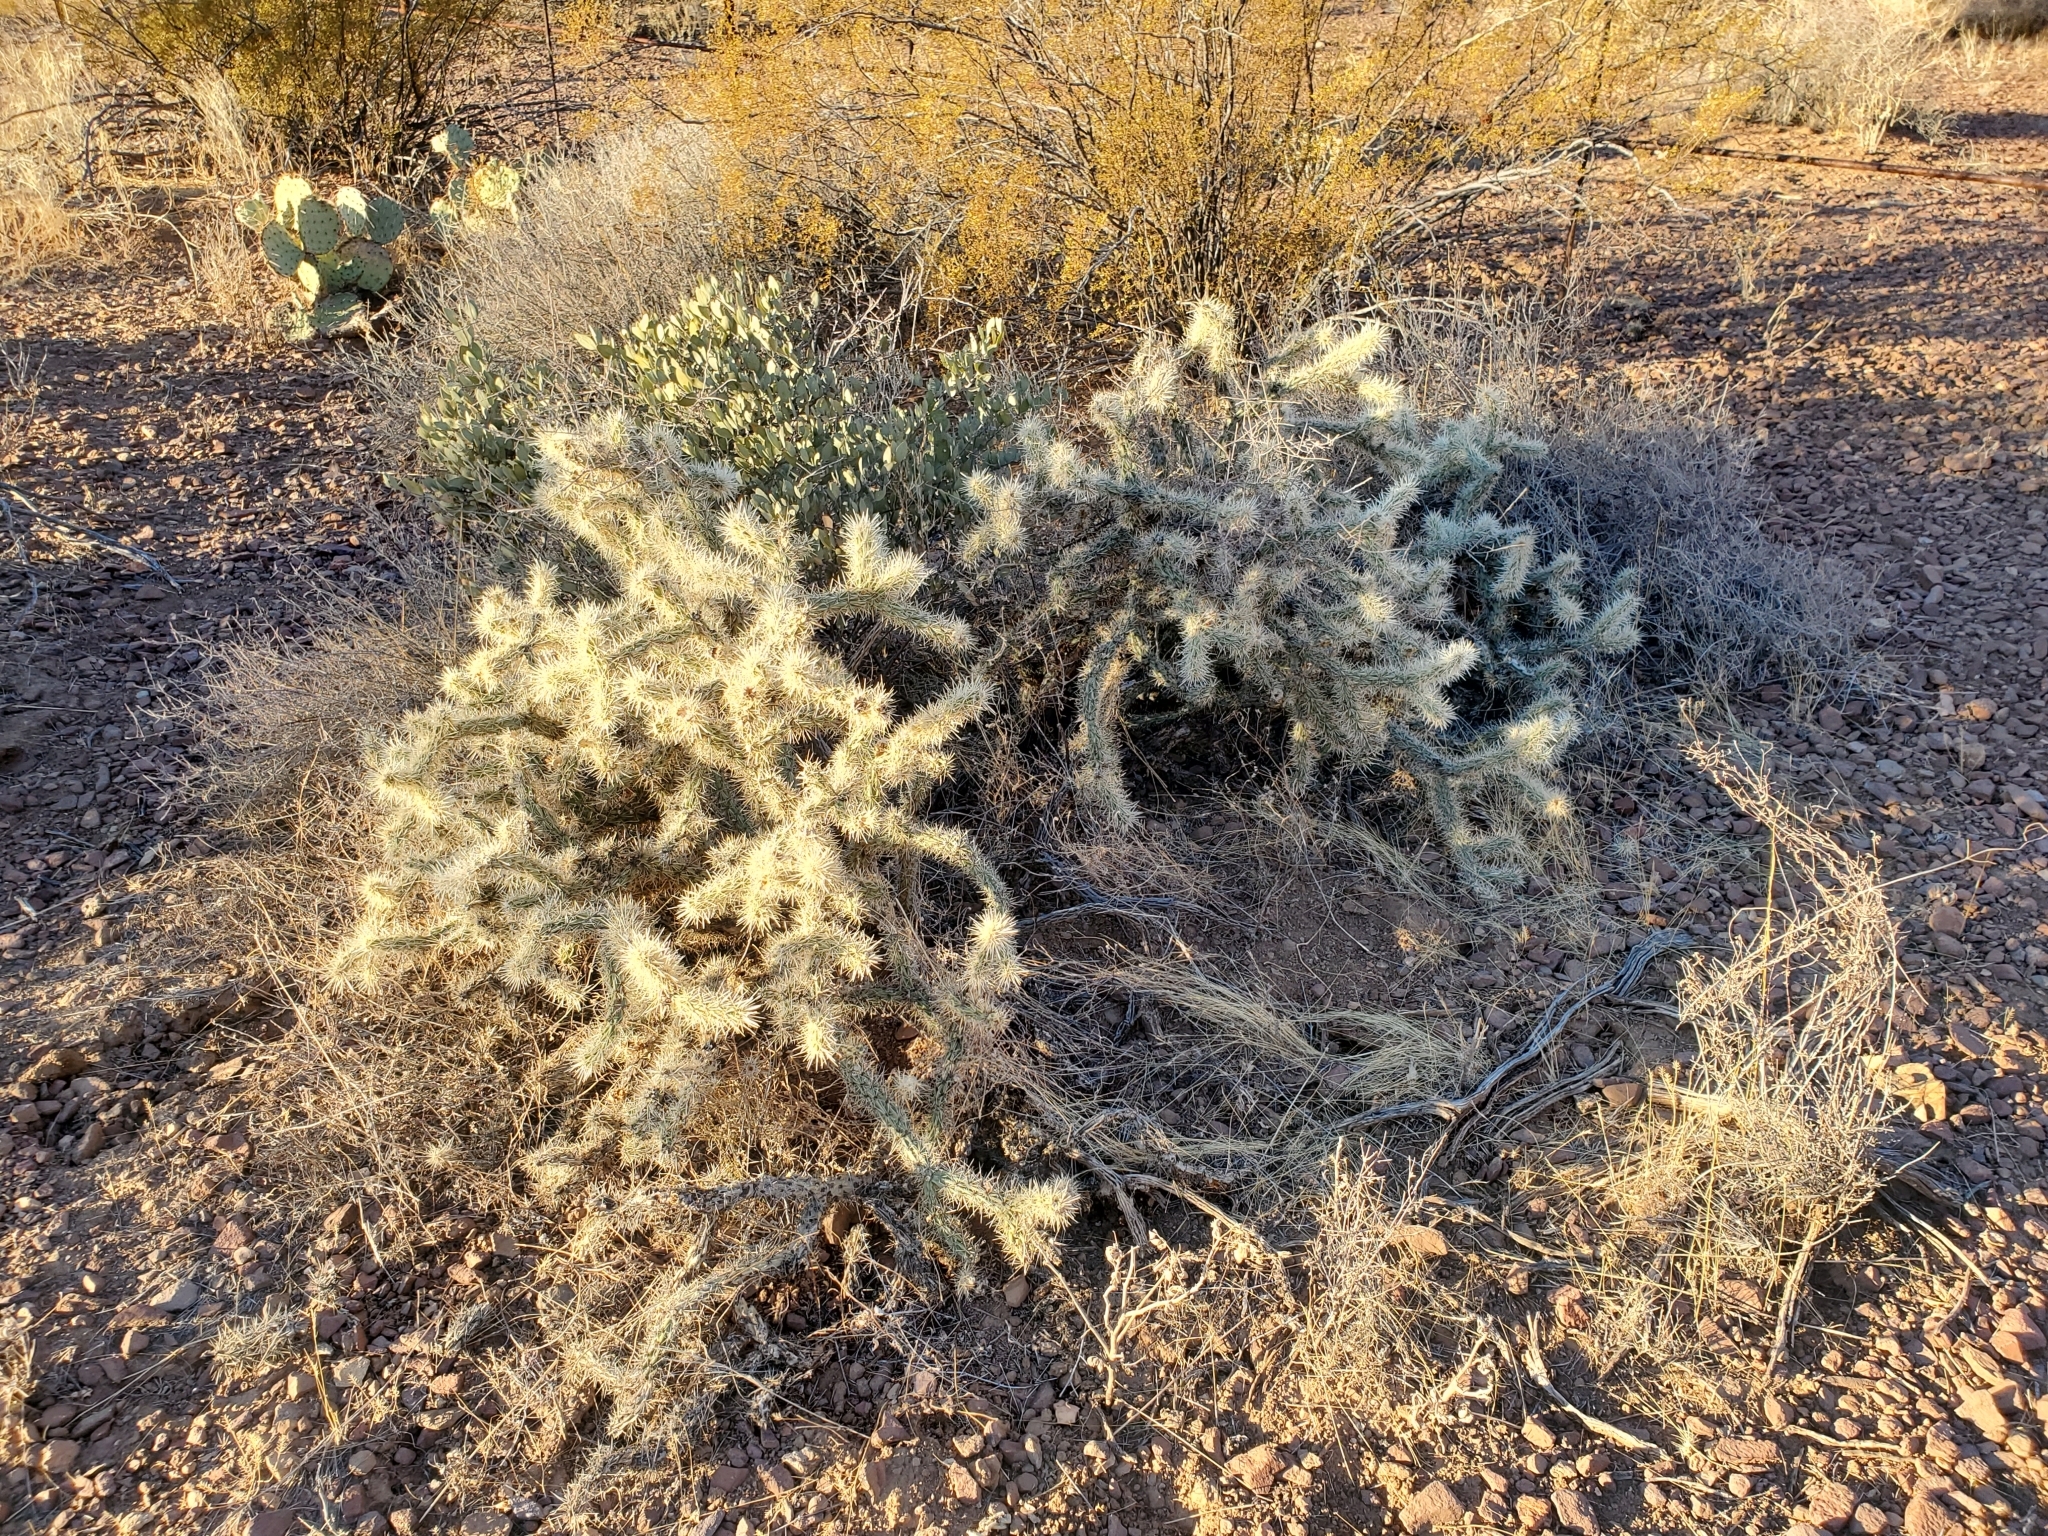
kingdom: Plantae
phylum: Tracheophyta
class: Magnoliopsida
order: Caryophyllales
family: Cactaceae
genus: Cylindropuntia
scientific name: Cylindropuntia acanthocarpa
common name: Buckhorn cholla
